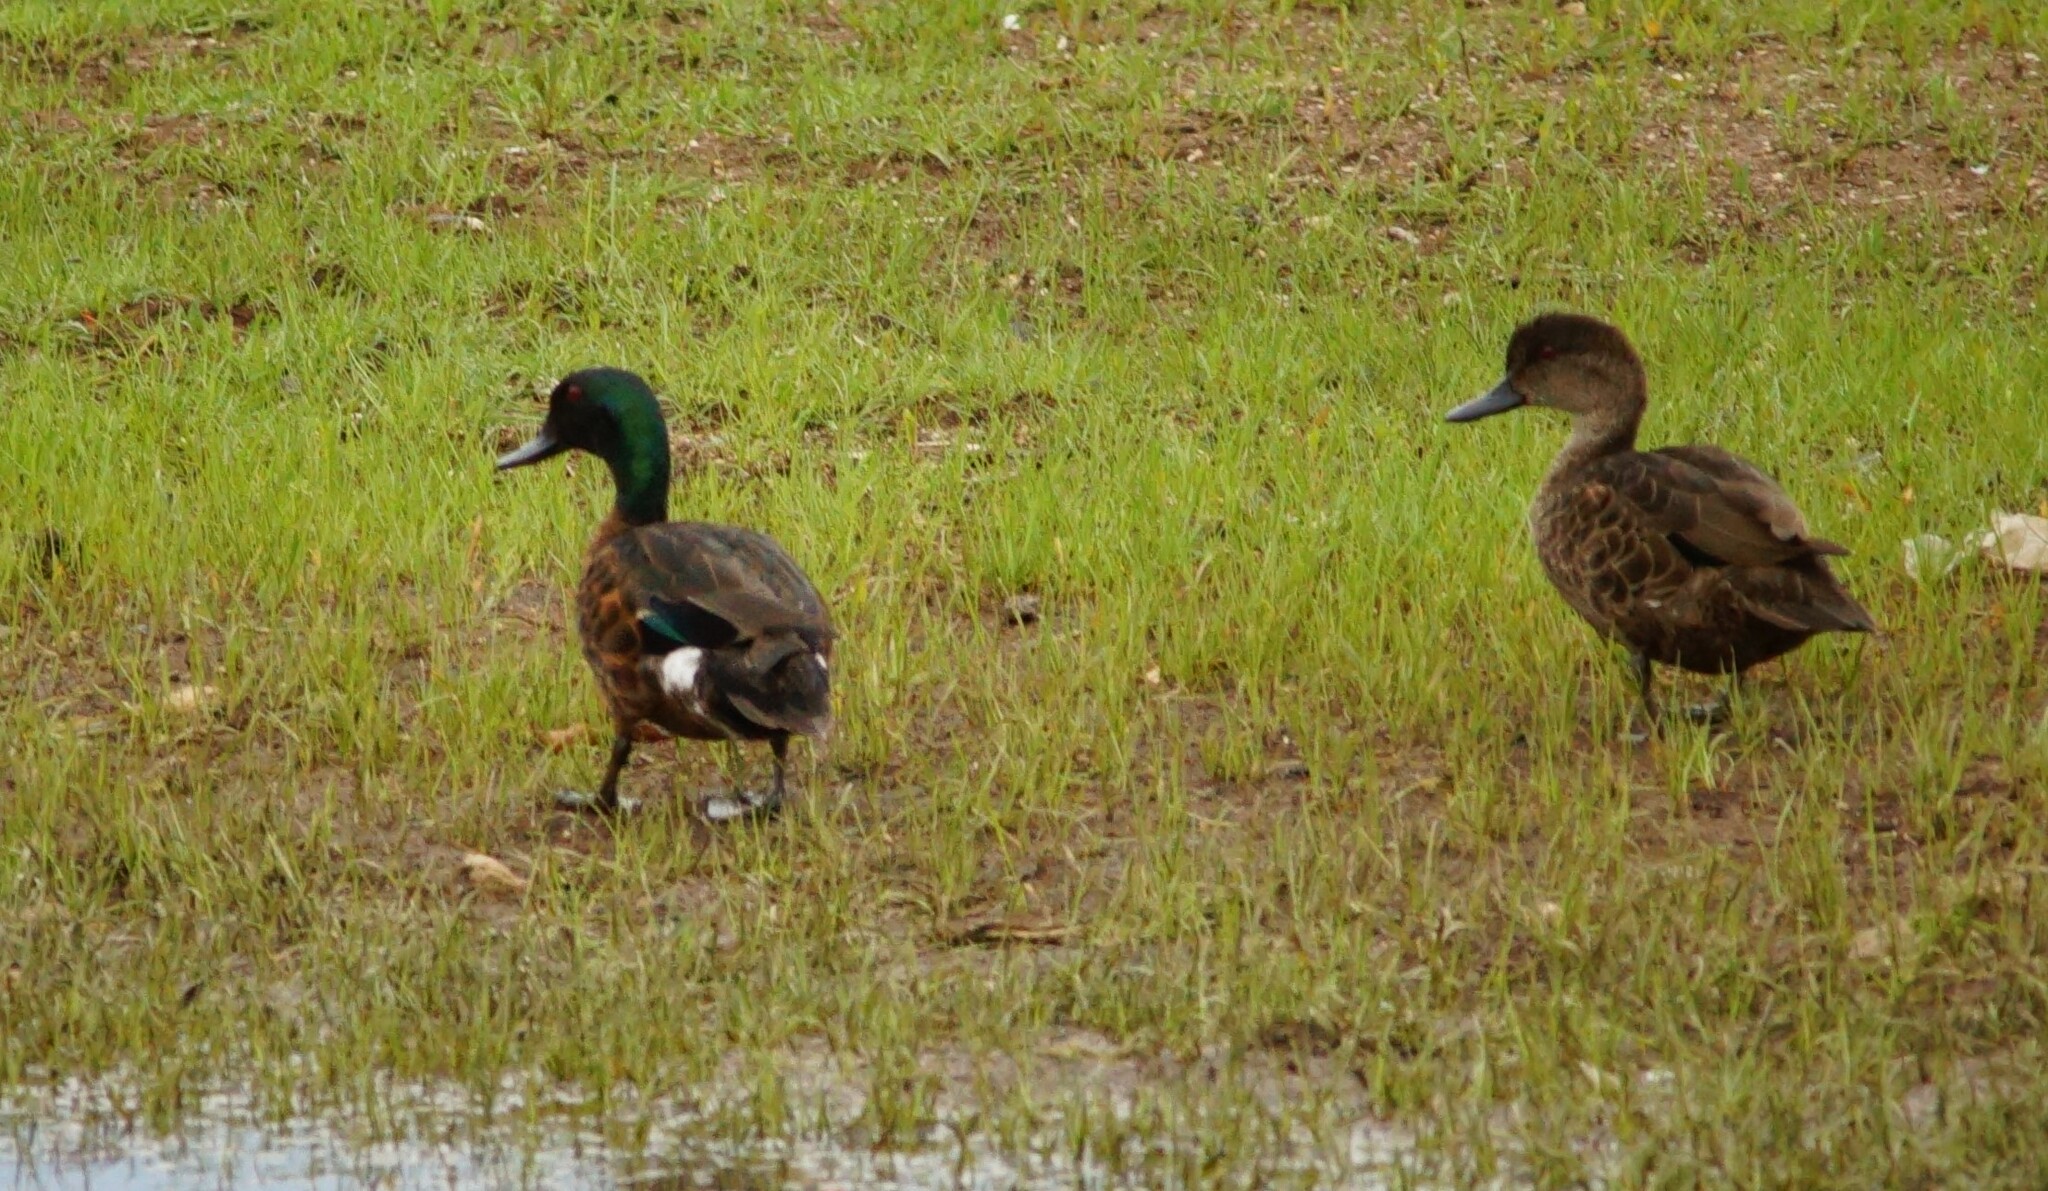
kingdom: Animalia
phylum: Chordata
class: Aves
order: Anseriformes
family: Anatidae
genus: Anas
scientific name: Anas castanea
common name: Chestnut teal
